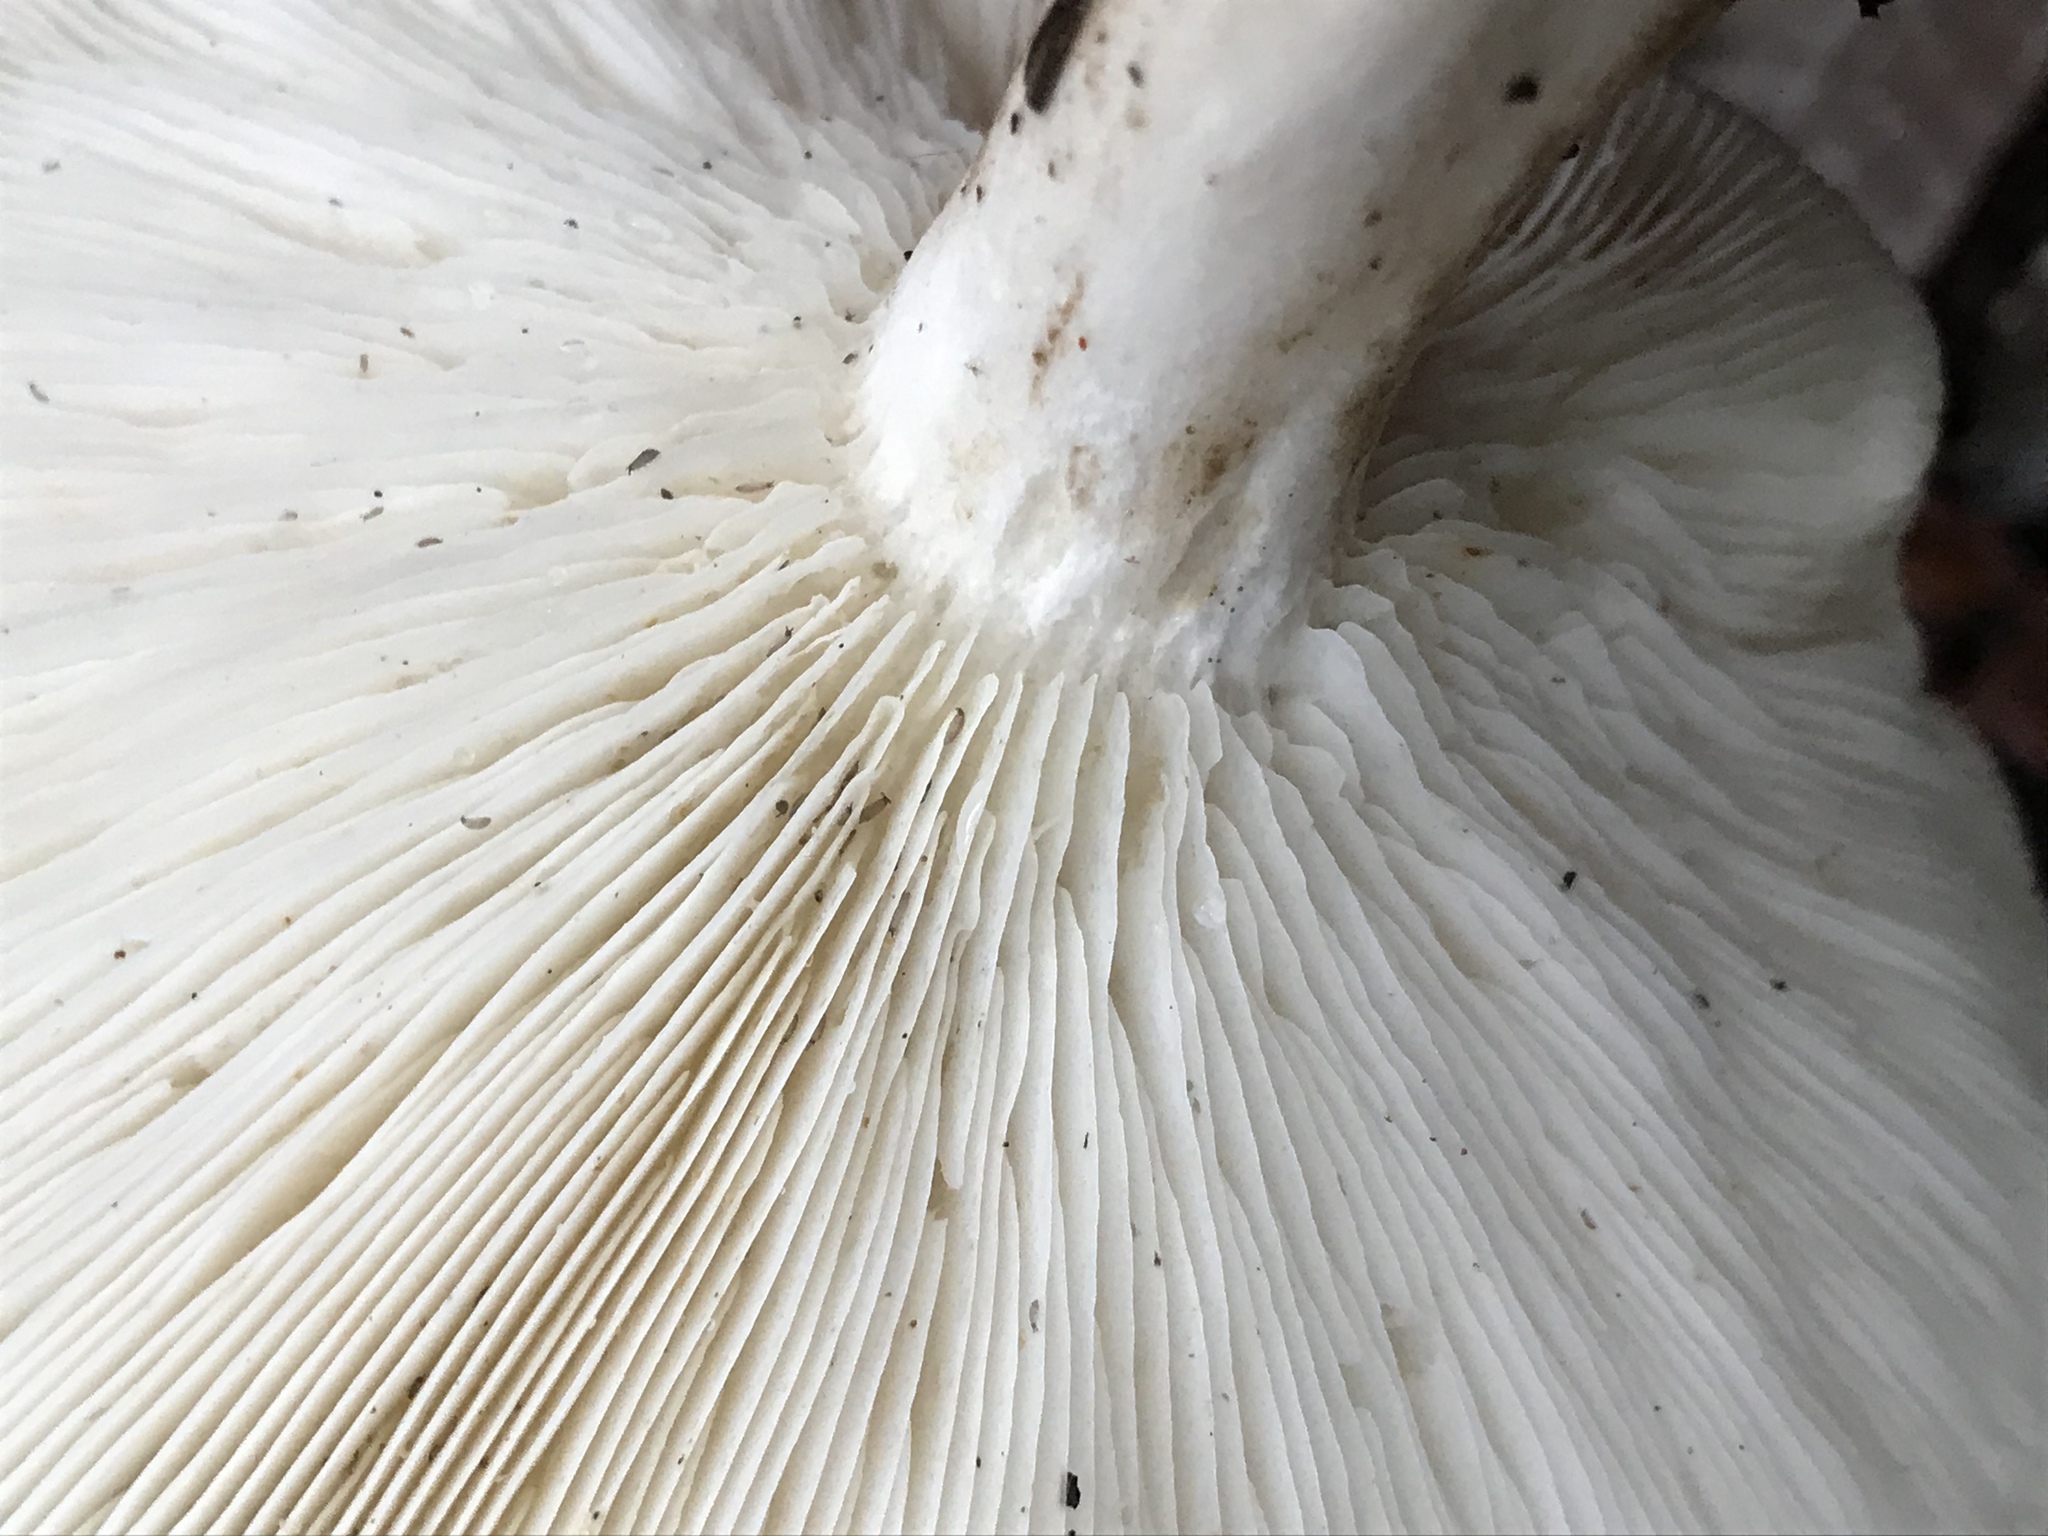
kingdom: Fungi
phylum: Basidiomycota
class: Agaricomycetes
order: Agaricales
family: Tricholomataceae
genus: Leucopaxillus
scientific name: Leucopaxillus gentianeus
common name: Bitter funnel
